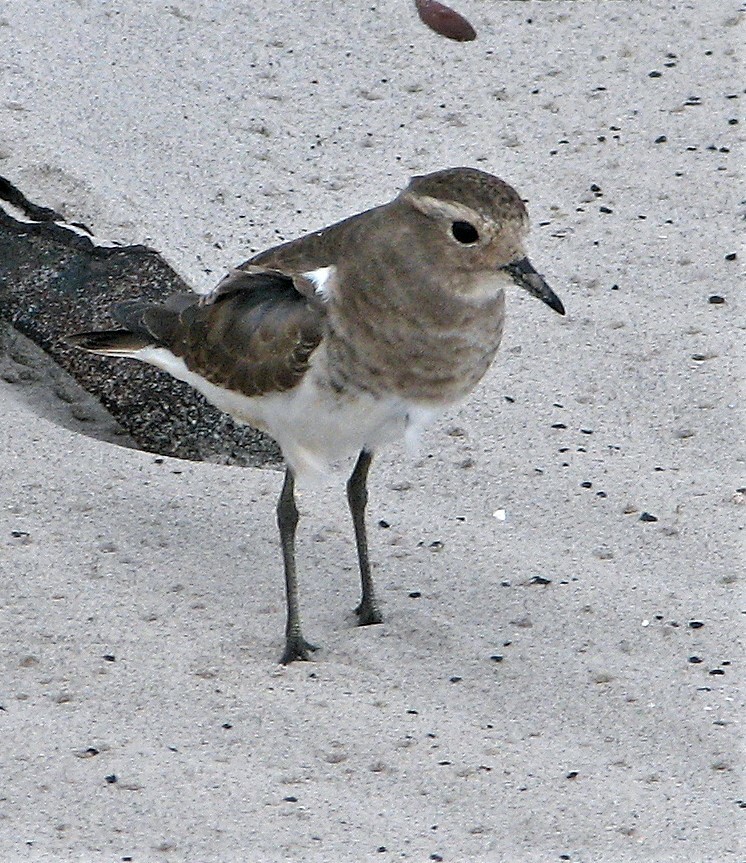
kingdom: Animalia
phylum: Chordata
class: Aves
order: Charadriiformes
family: Charadriidae
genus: Charadrius
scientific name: Charadrius modestus
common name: Rufous-chested plover
